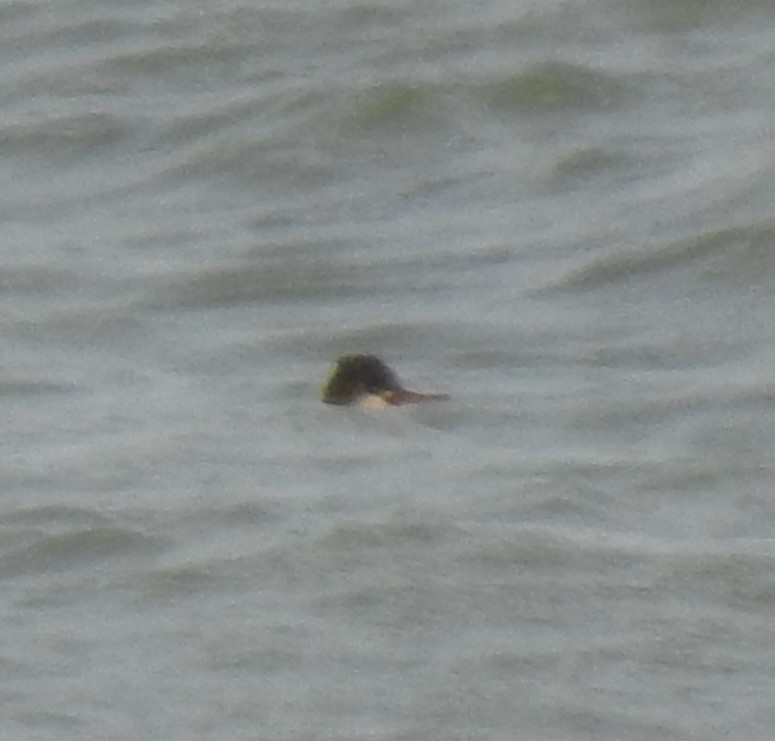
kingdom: Animalia
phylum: Chordata
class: Aves
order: Anseriformes
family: Anatidae
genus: Mergus
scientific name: Mergus serrator
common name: Red-breasted merganser
